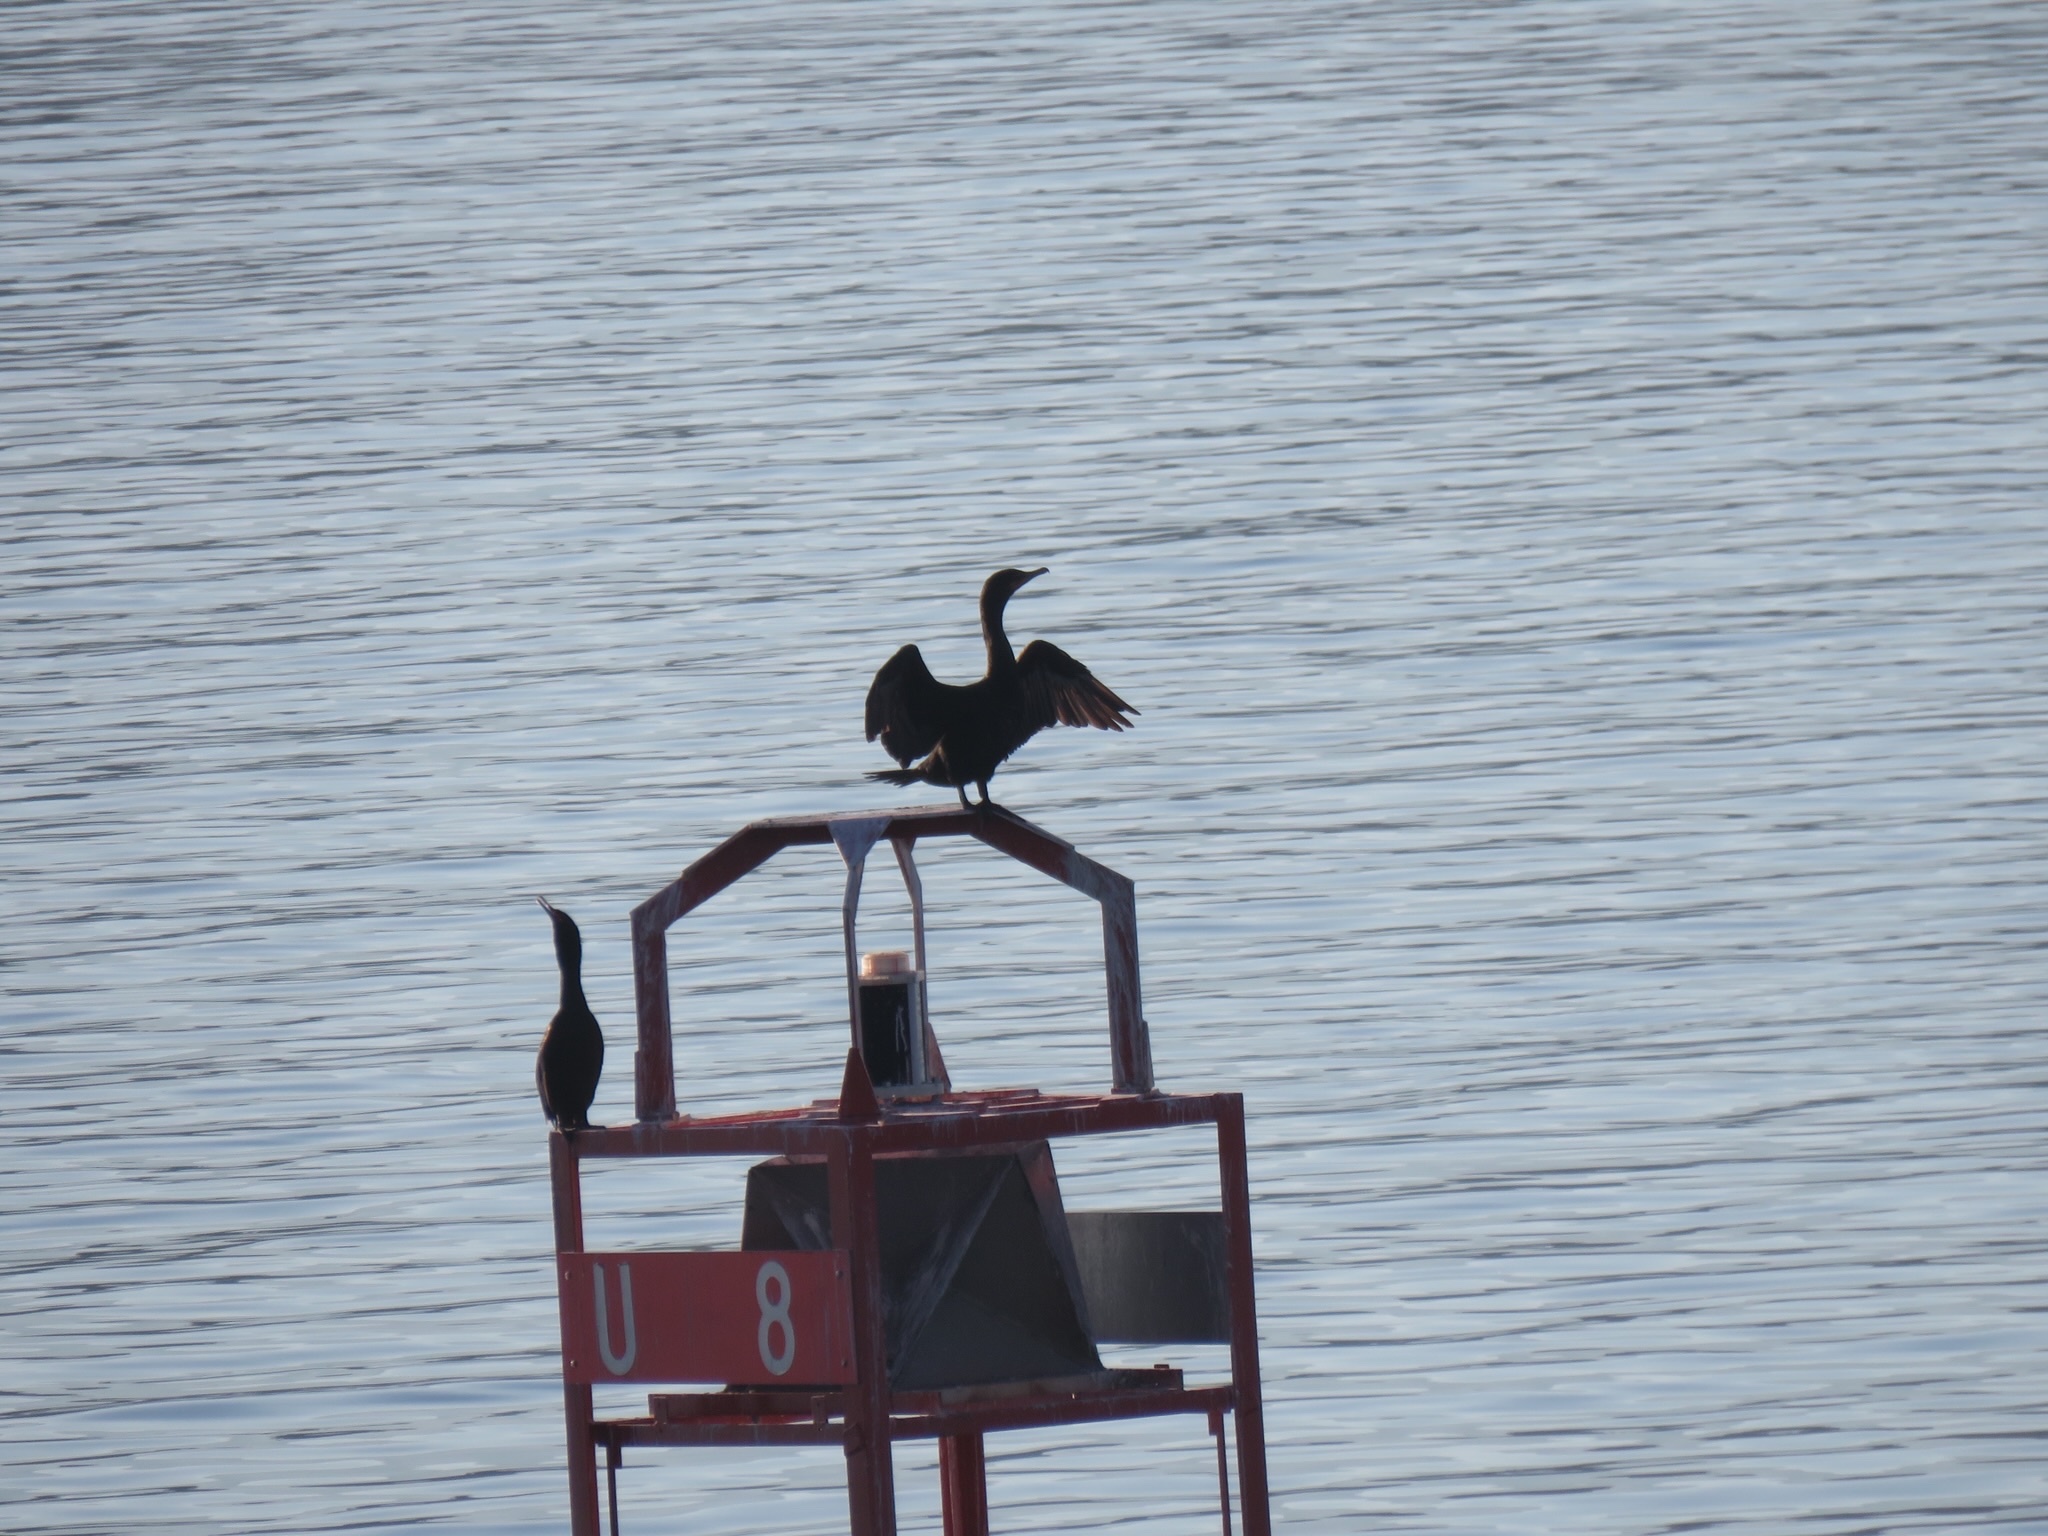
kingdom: Animalia
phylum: Chordata
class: Aves
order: Suliformes
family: Phalacrocoracidae
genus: Phalacrocorax
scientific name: Phalacrocorax auritus
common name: Double-crested cormorant
